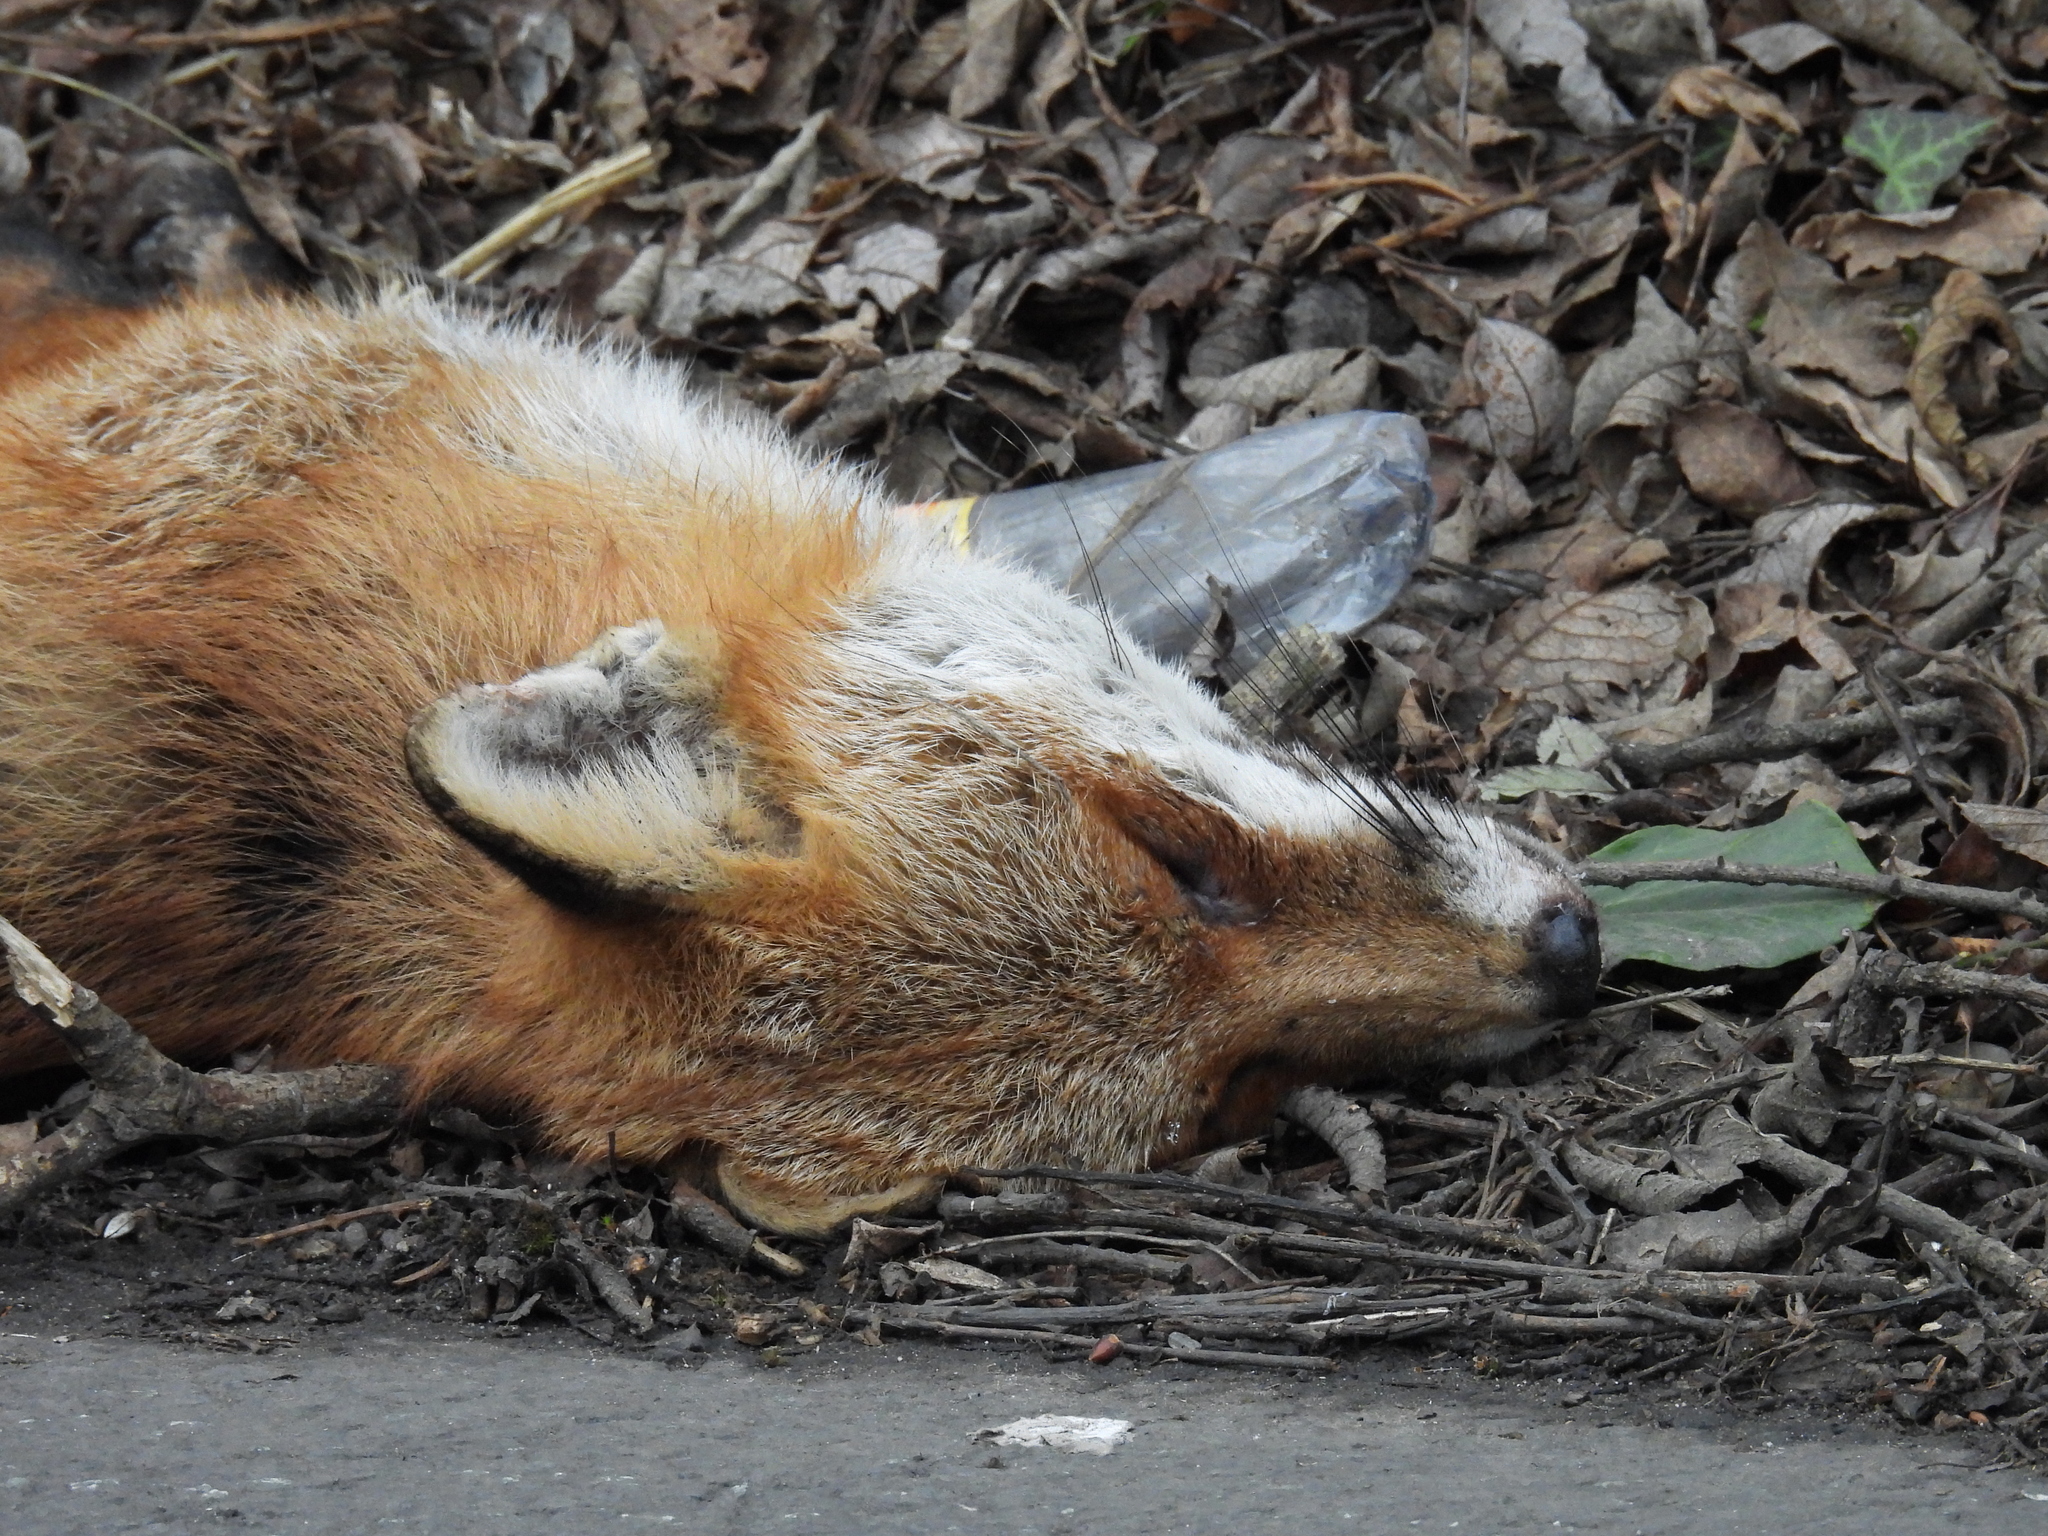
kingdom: Animalia
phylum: Chordata
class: Mammalia
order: Carnivora
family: Canidae
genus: Vulpes
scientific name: Vulpes vulpes
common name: Red fox
